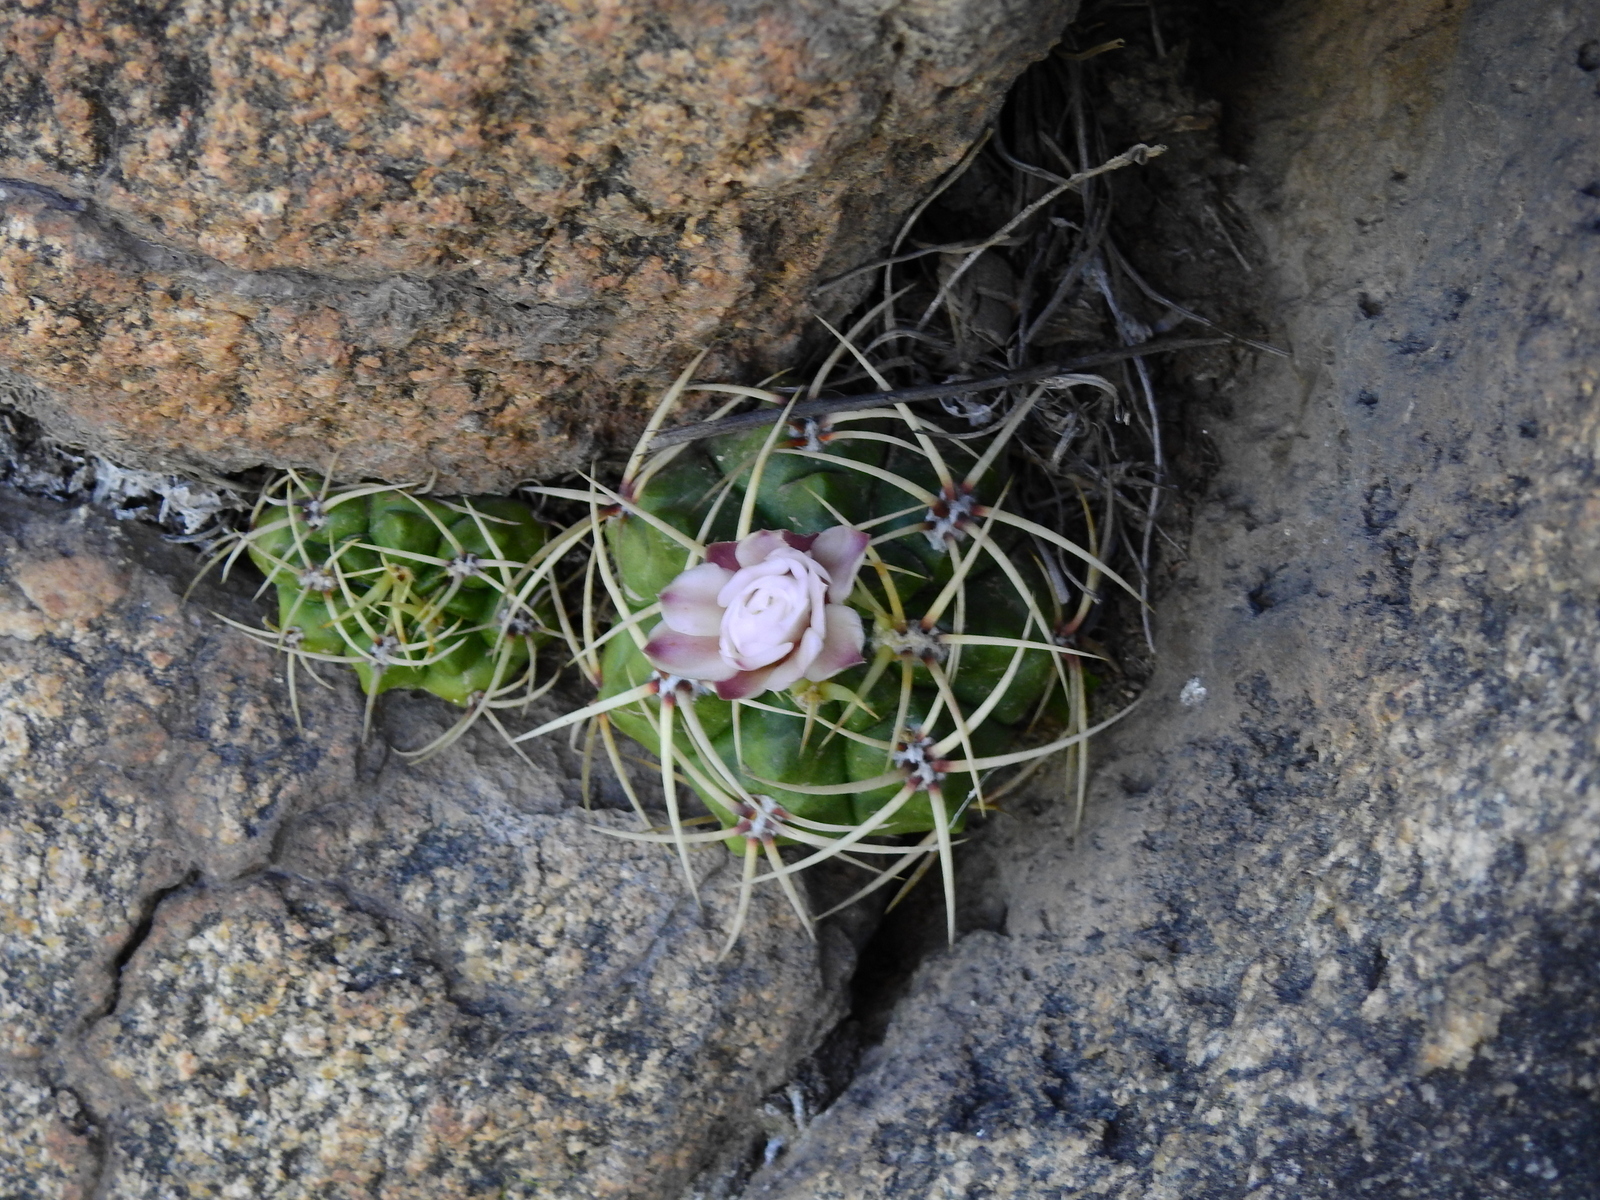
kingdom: Plantae
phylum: Tracheophyta
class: Magnoliopsida
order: Caryophyllales
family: Cactaceae
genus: Gymnocalycium
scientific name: Gymnocalycium monvillei
